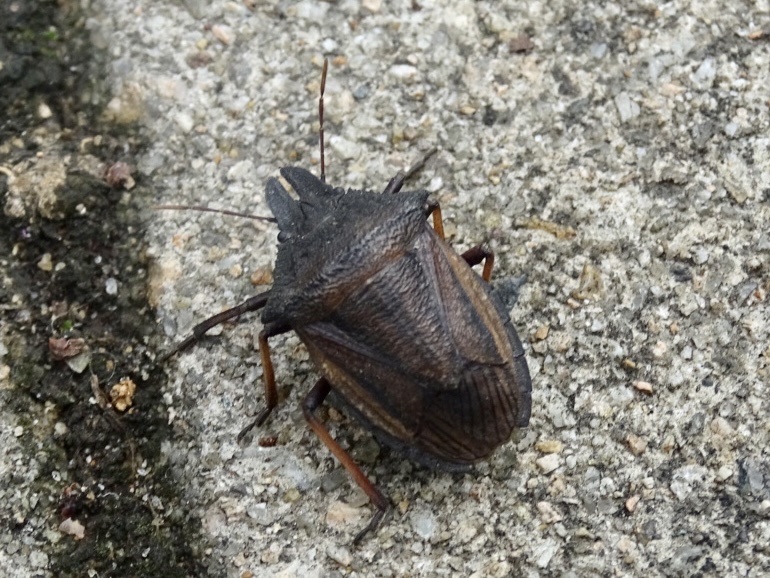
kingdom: Animalia
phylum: Arthropoda
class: Insecta
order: Hemiptera
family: Pentatomidae
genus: Diplorhinus
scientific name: Diplorhinus furcatus
